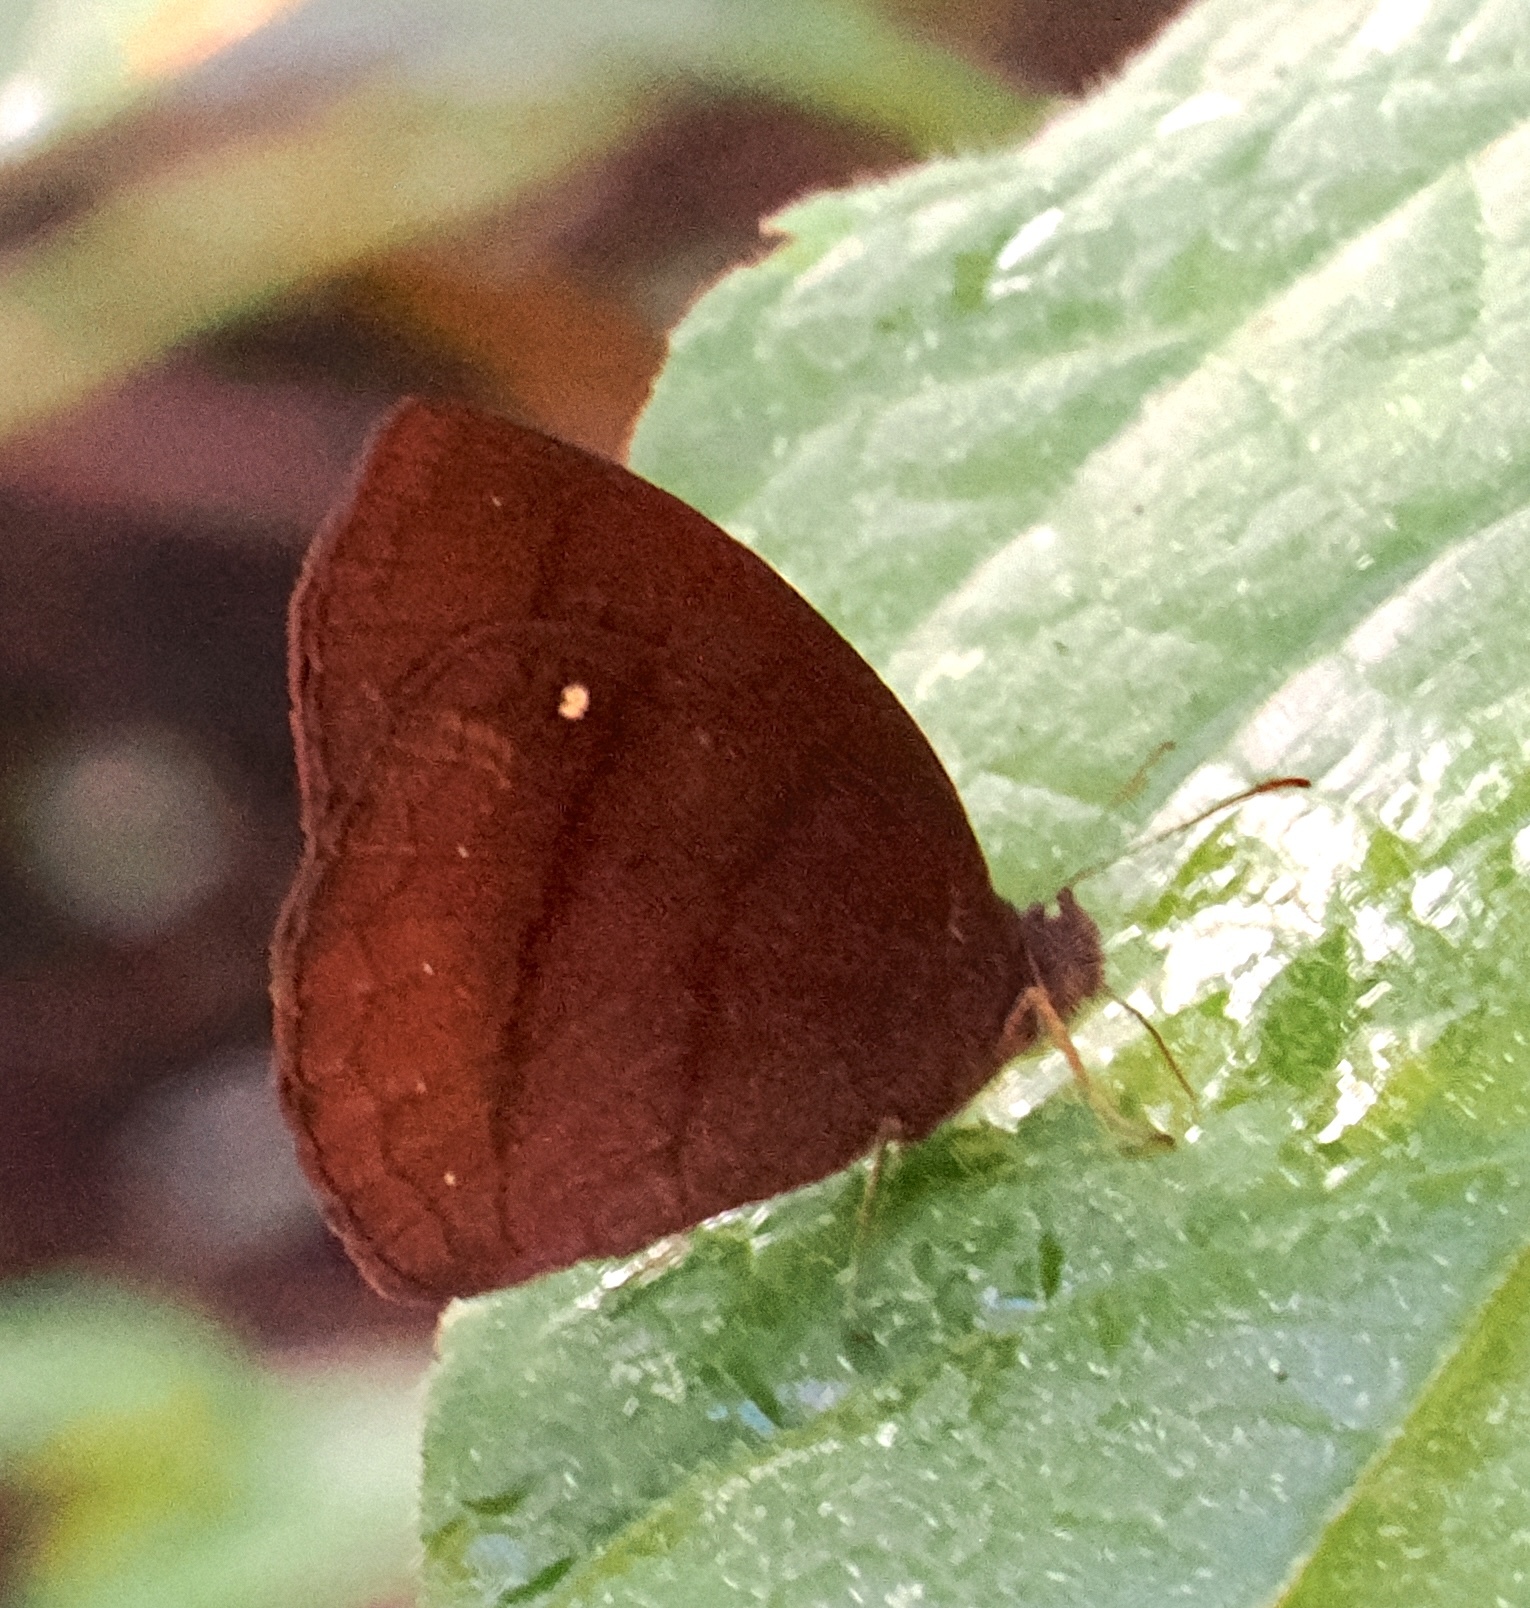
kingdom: Animalia
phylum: Arthropoda
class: Insecta
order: Lepidoptera
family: Nymphalidae
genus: Forsterinaria
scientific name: Forsterinaria quantius
